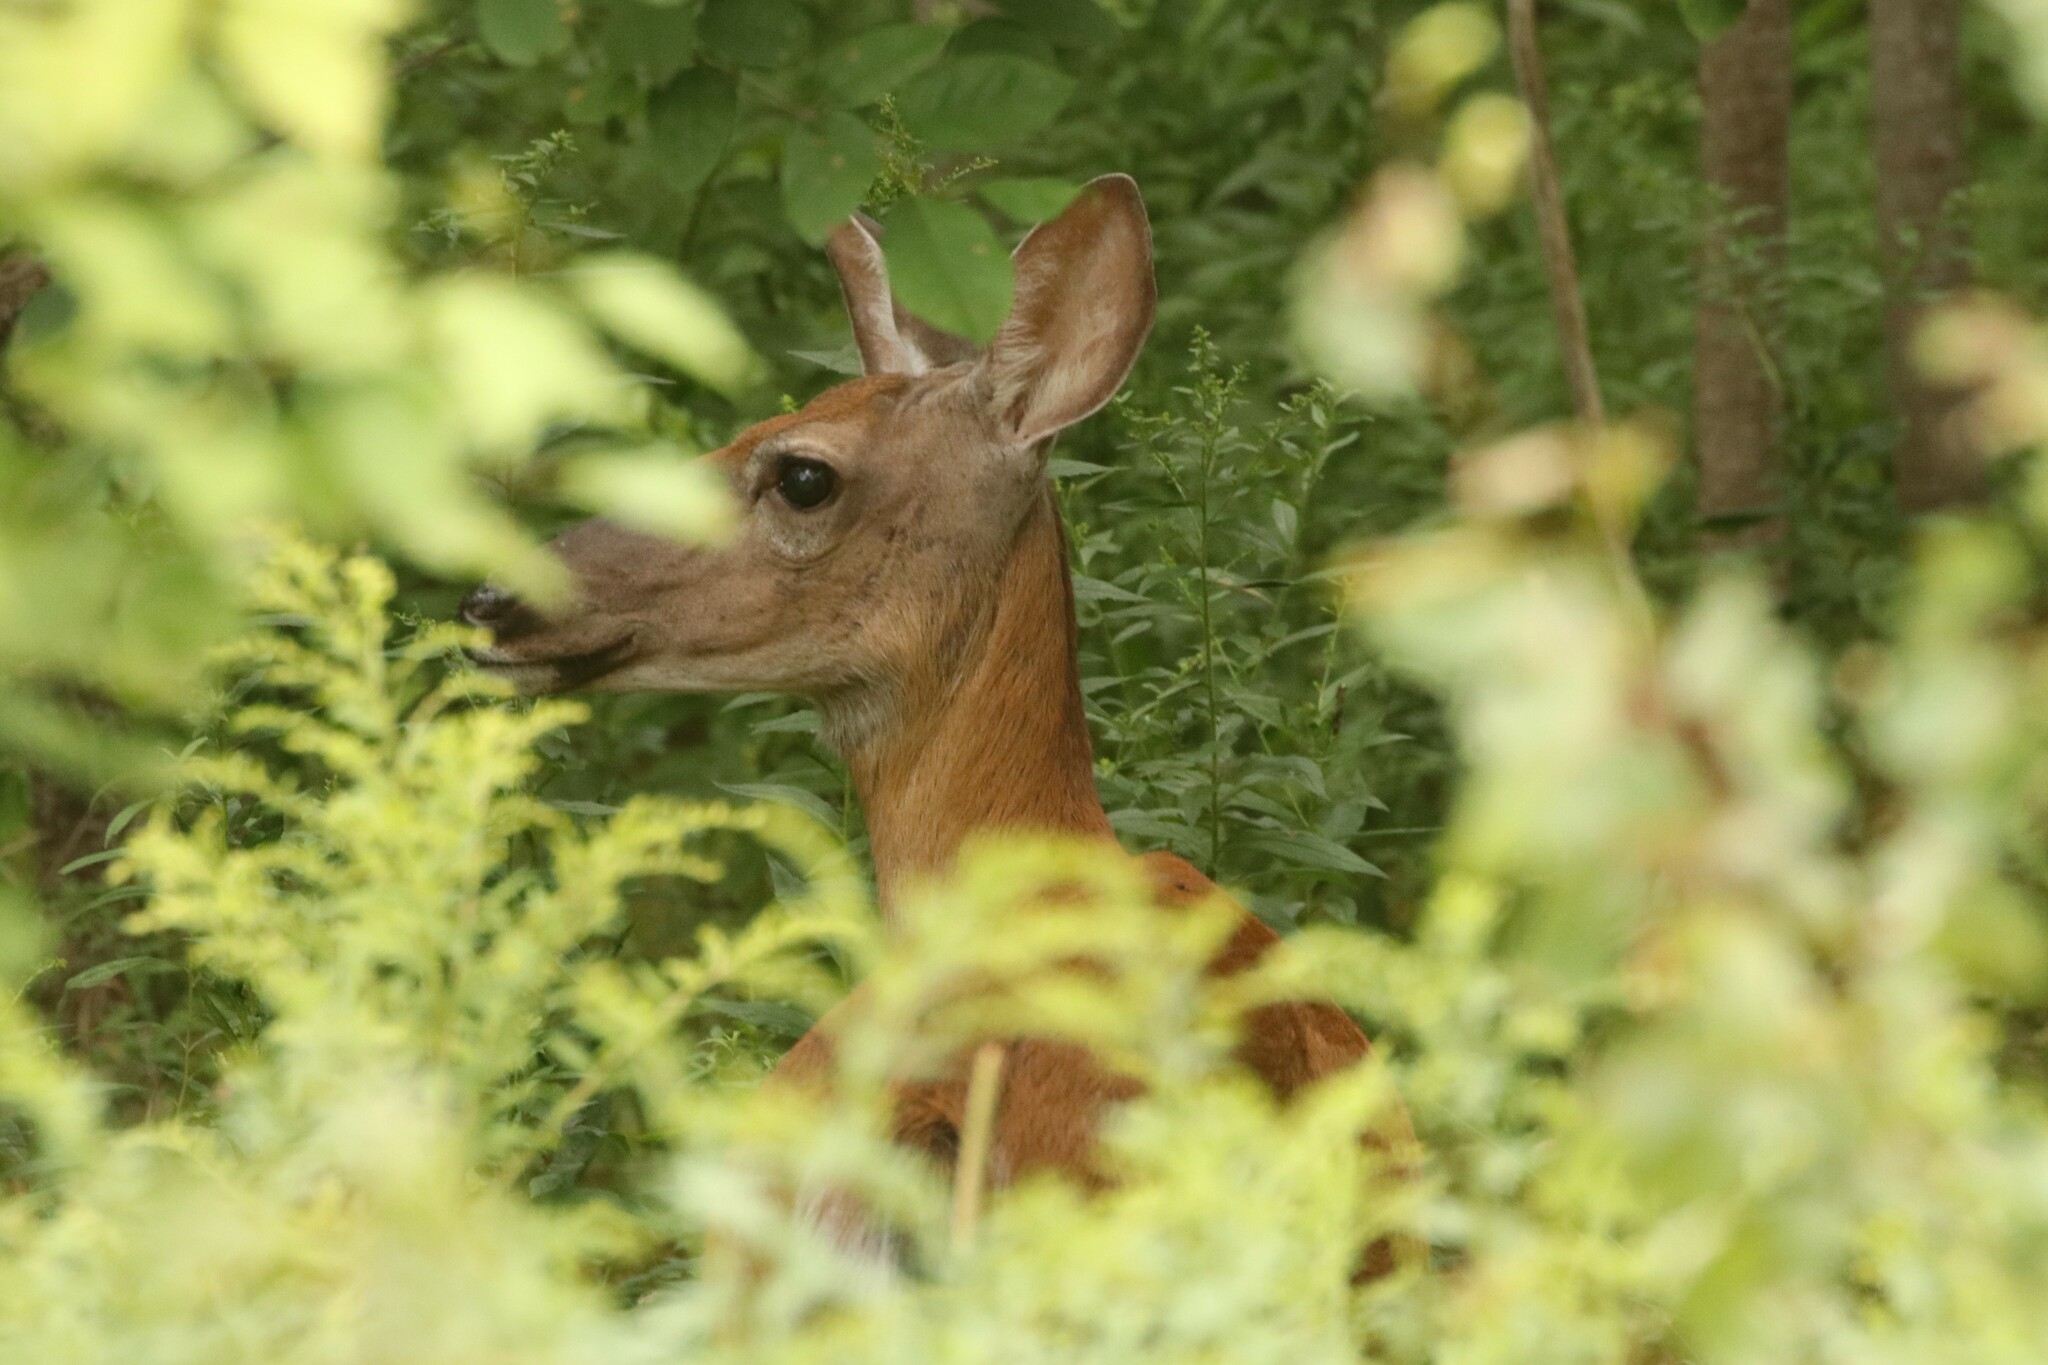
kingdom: Animalia
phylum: Chordata
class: Mammalia
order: Artiodactyla
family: Cervidae
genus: Odocoileus
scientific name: Odocoileus virginianus
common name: White-tailed deer
